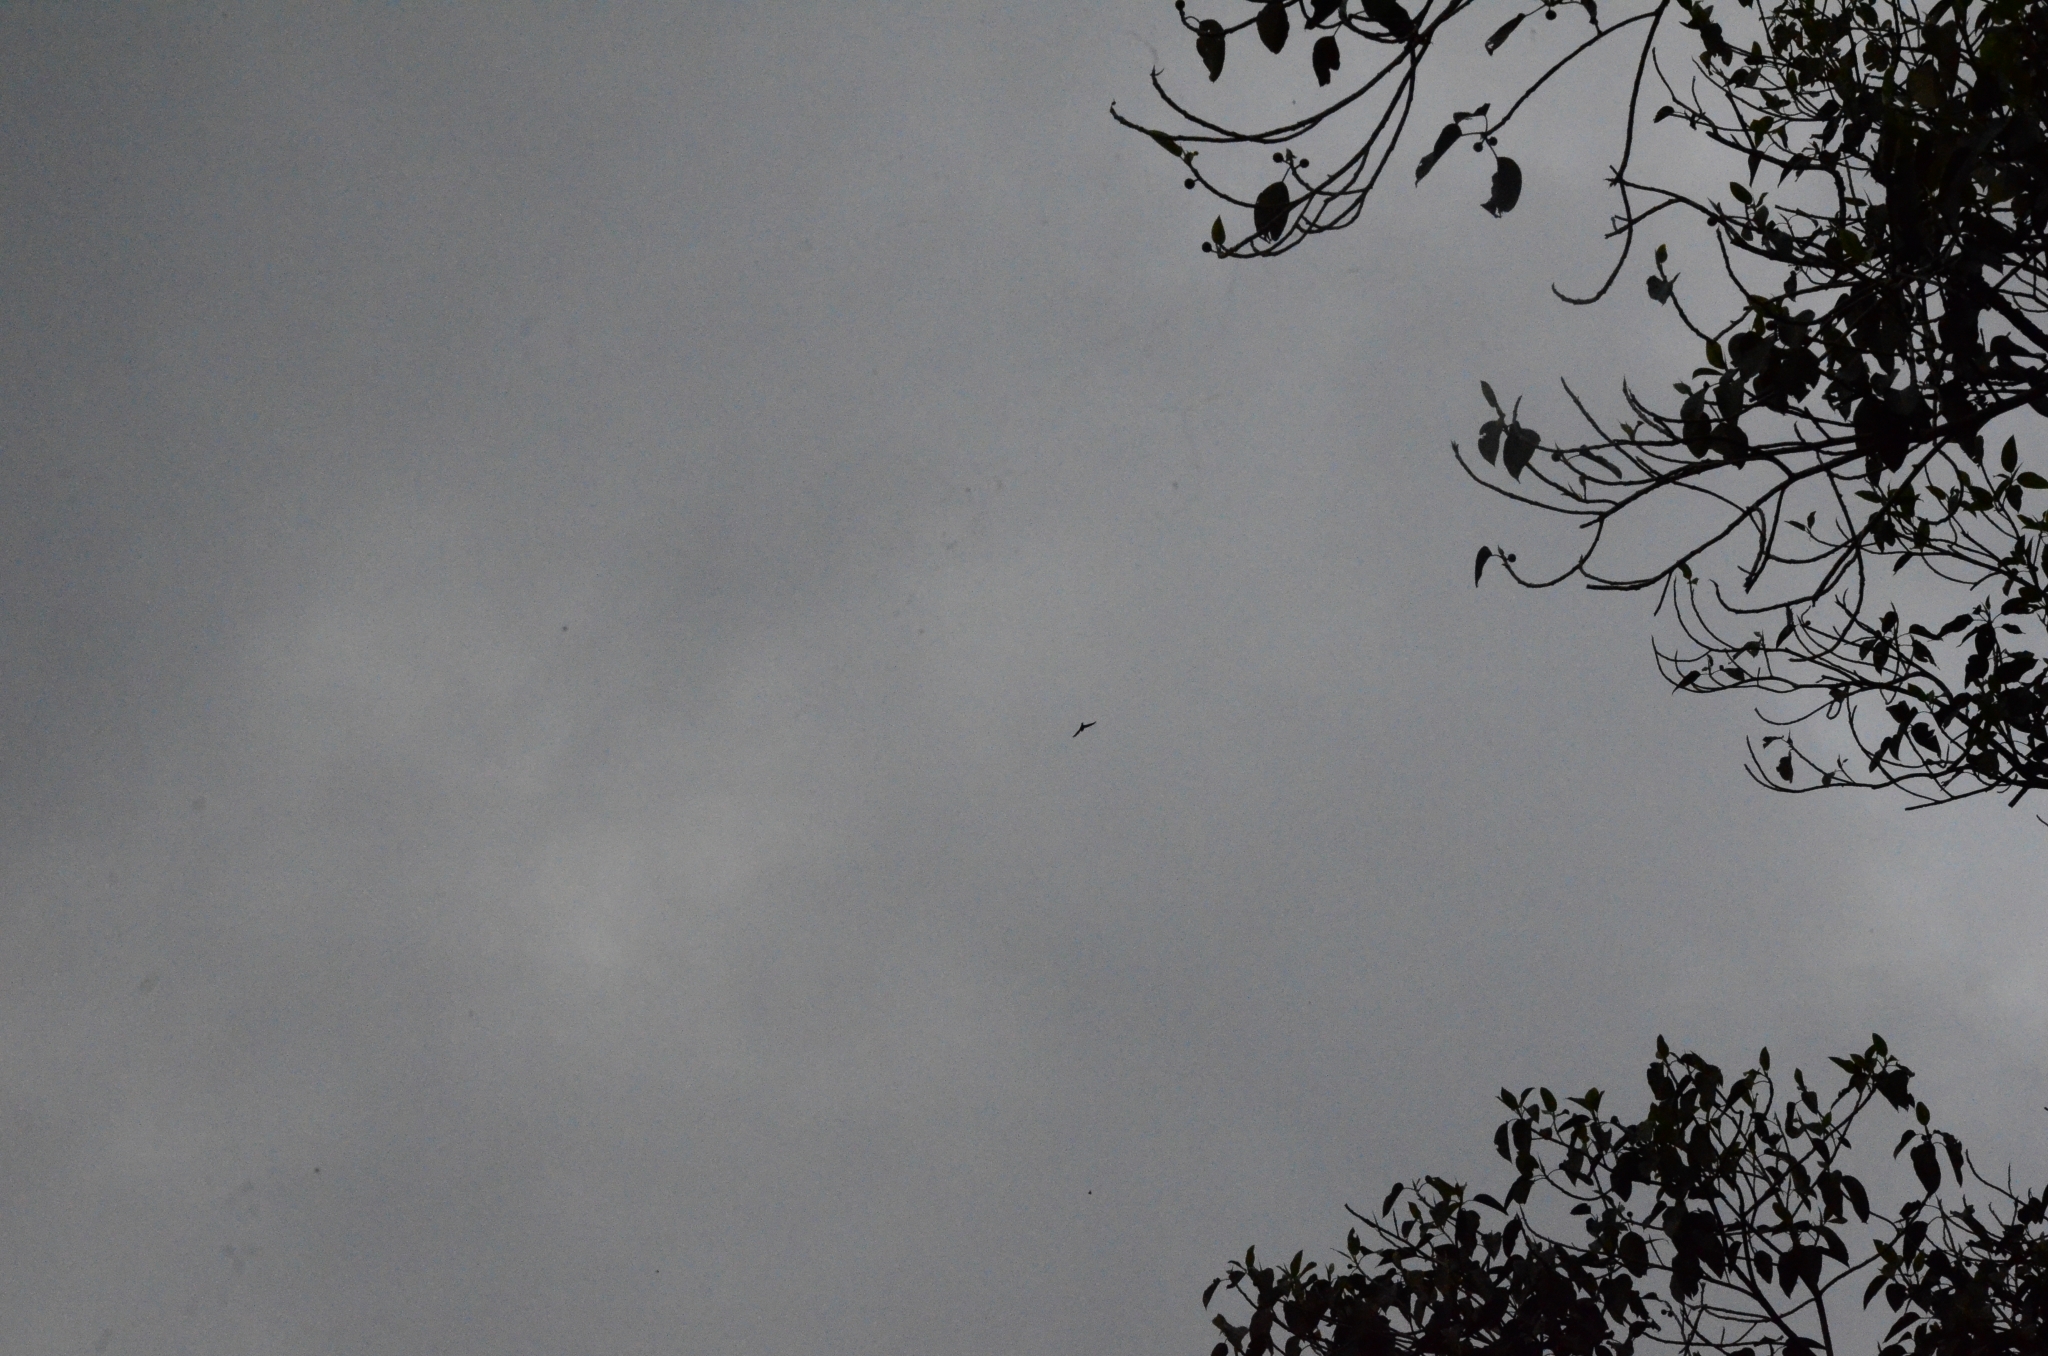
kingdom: Animalia
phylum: Chordata
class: Aves
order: Apodiformes
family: Apodidae
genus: Apus
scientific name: Apus affinis
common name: Little swift
